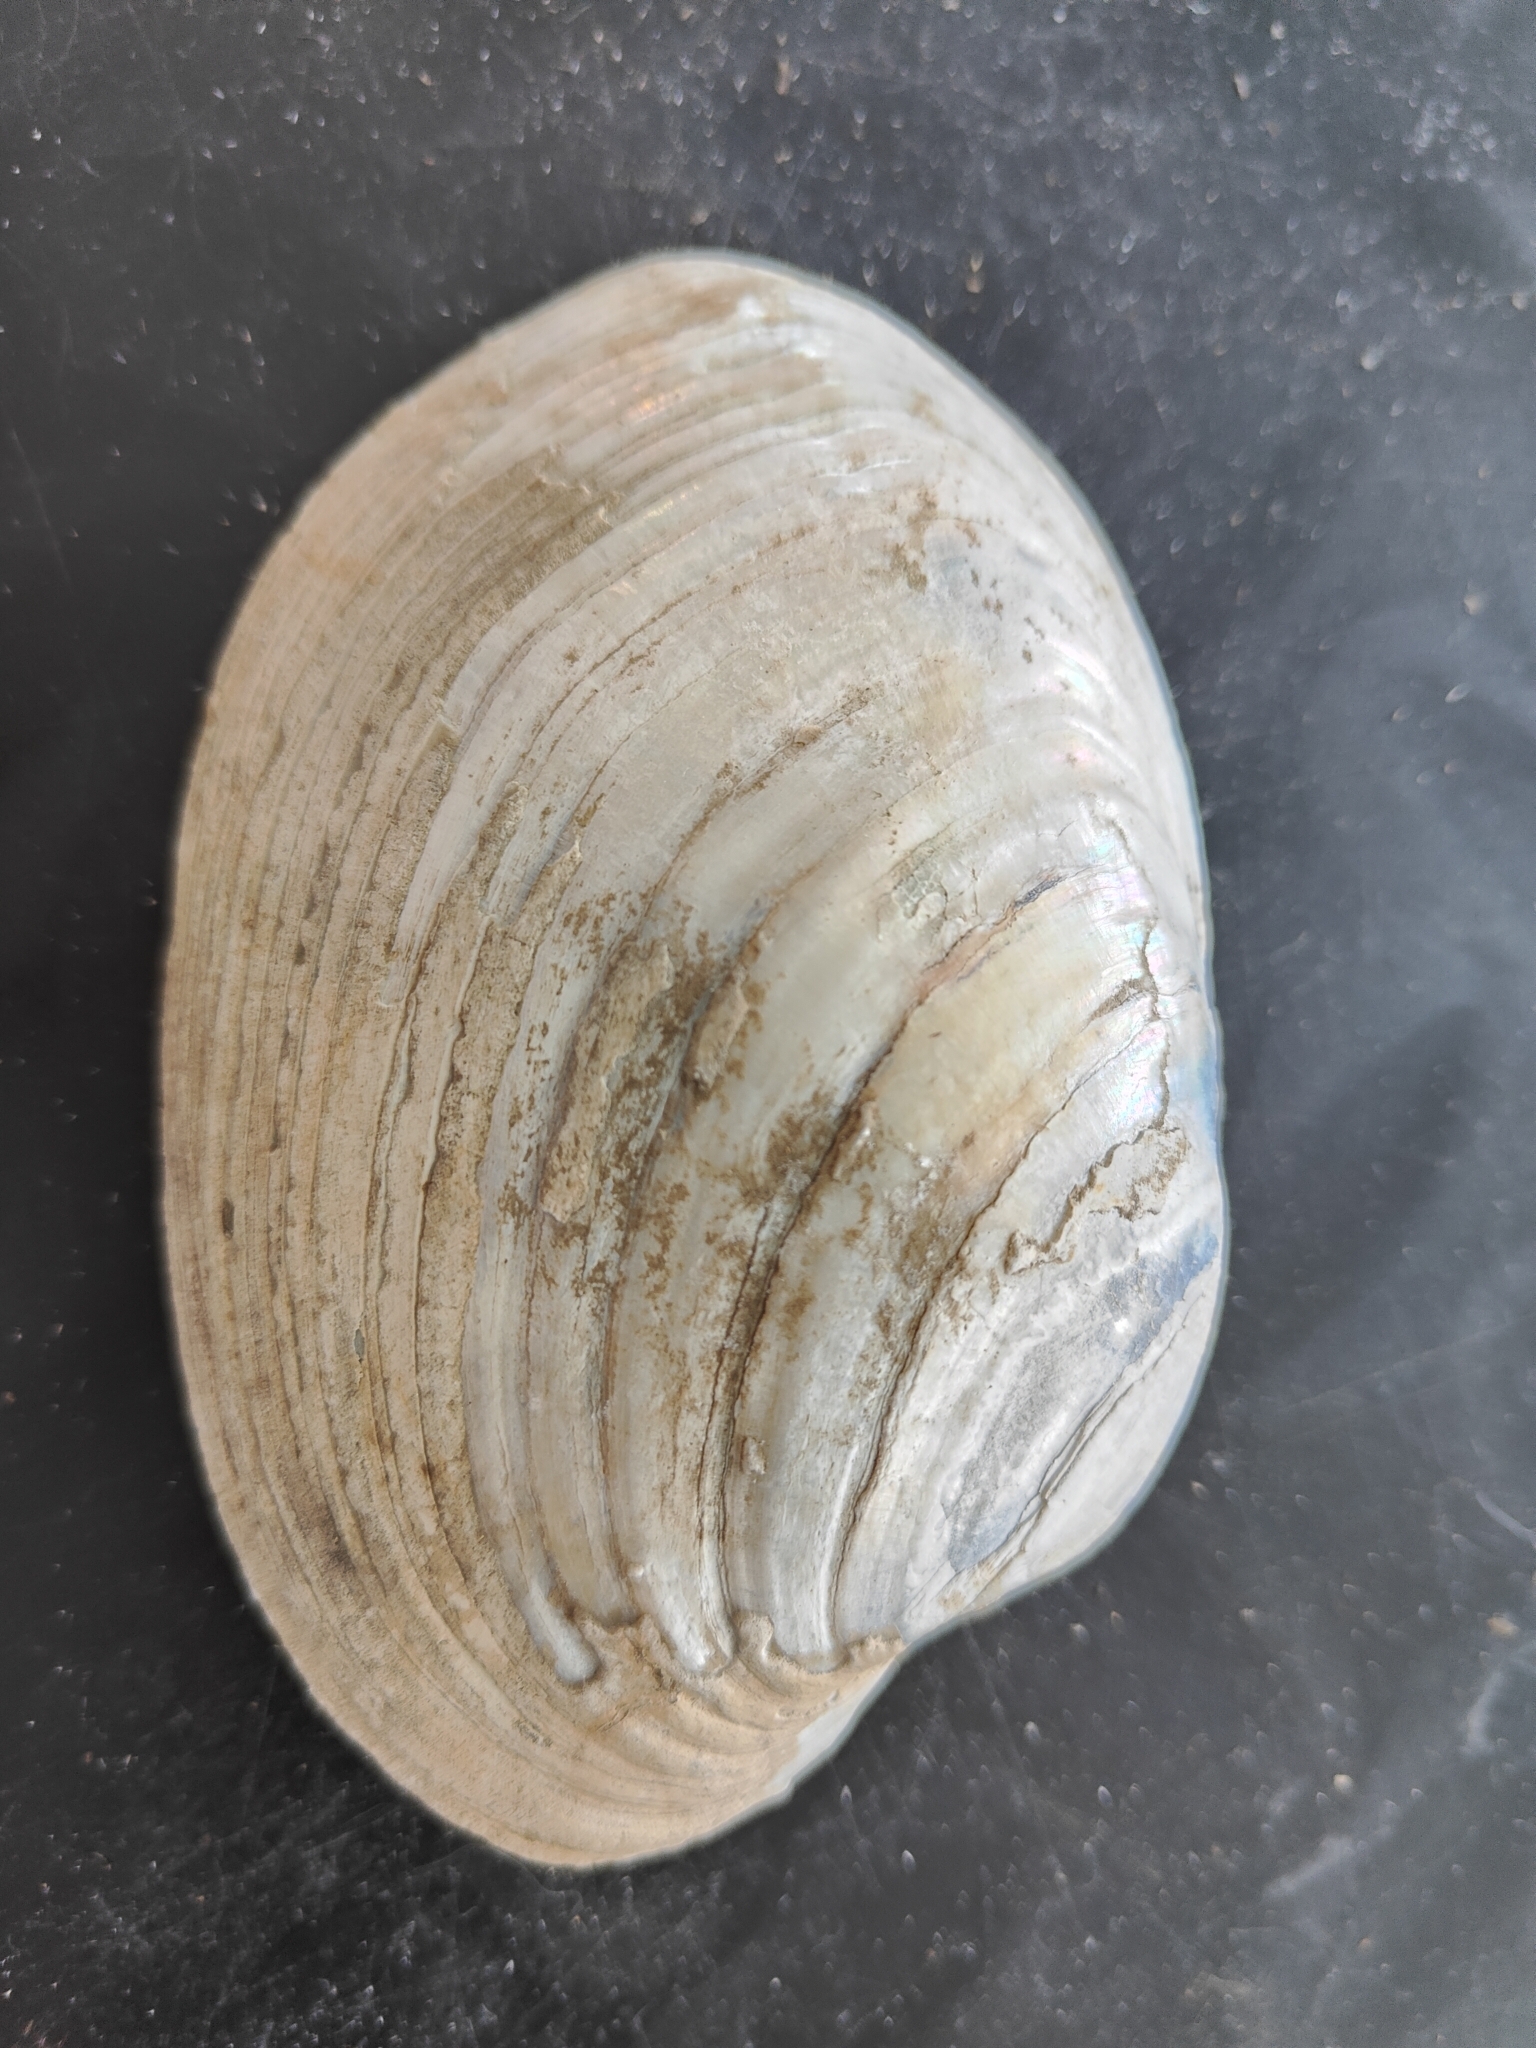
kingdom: Animalia
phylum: Mollusca
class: Bivalvia
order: Unionida
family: Unionidae
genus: Lampsilis
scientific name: Lampsilis cardium
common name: Plain pocketbook
